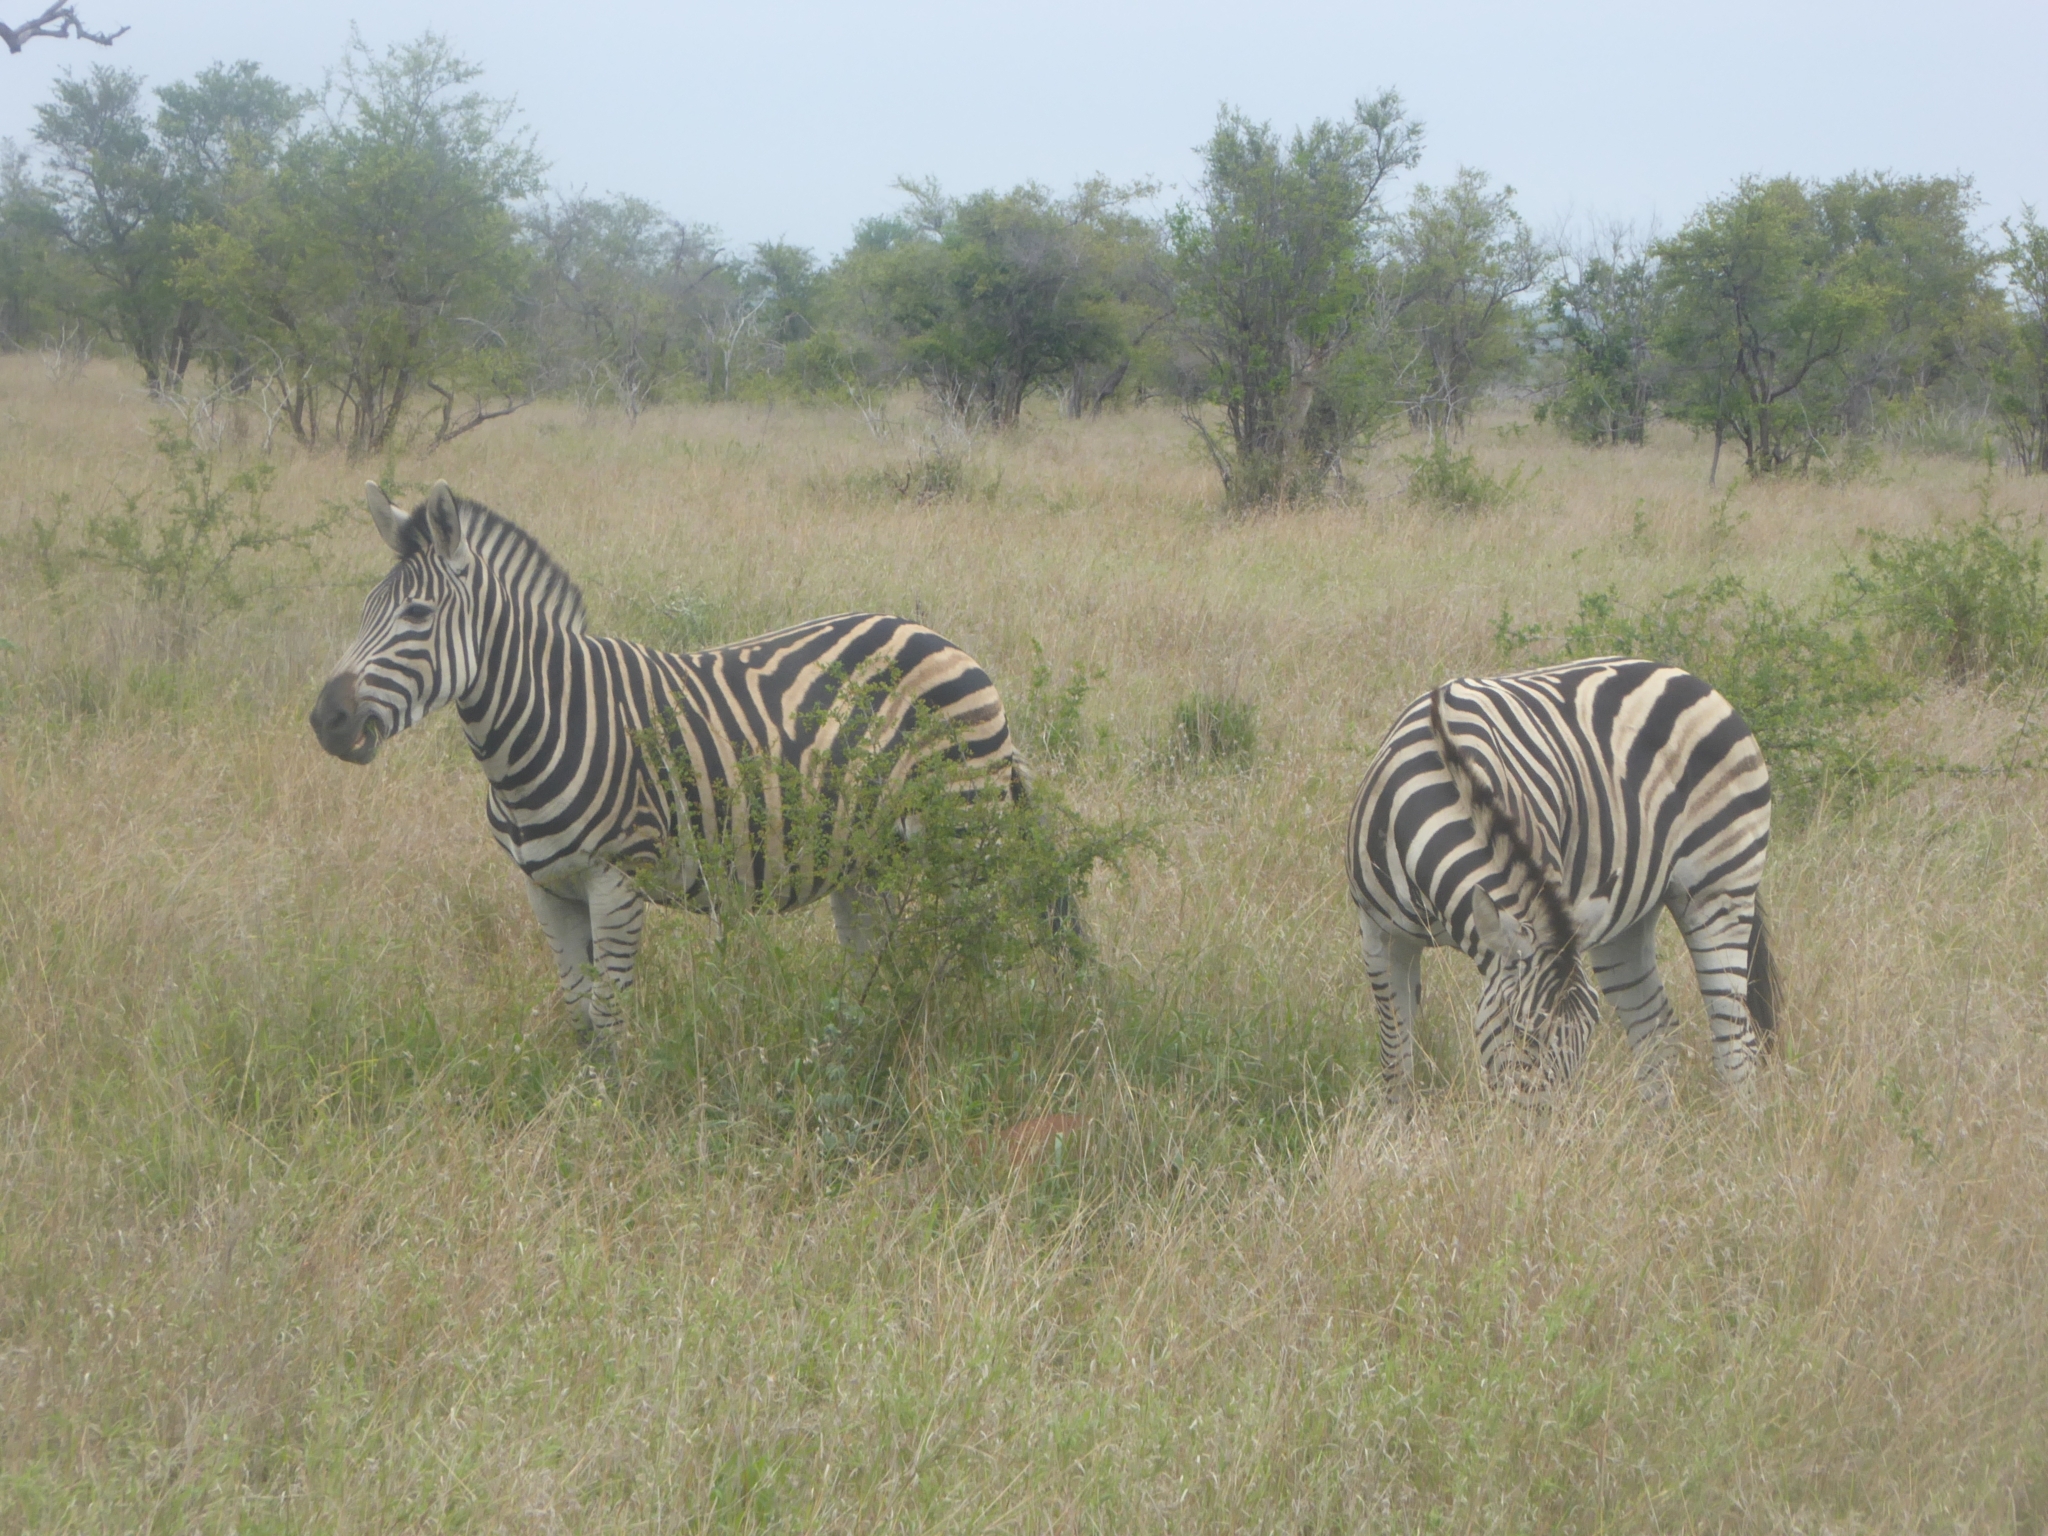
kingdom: Animalia
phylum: Chordata
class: Mammalia
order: Perissodactyla
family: Equidae
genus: Equus
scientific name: Equus quagga
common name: Plains zebra
